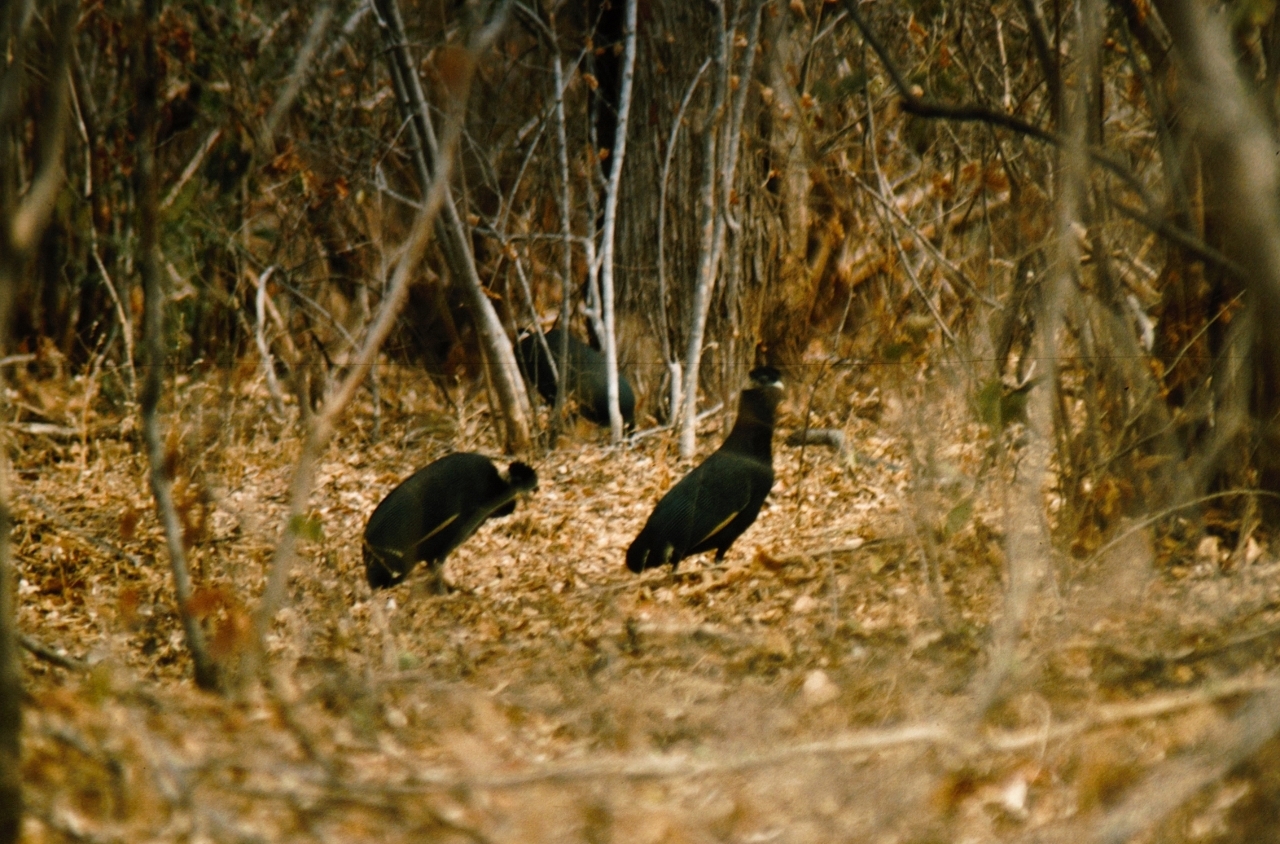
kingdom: Animalia
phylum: Chordata
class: Aves
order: Galliformes
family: Numididae
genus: Guttera
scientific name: Guttera pucherani
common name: Crested guineafowl
